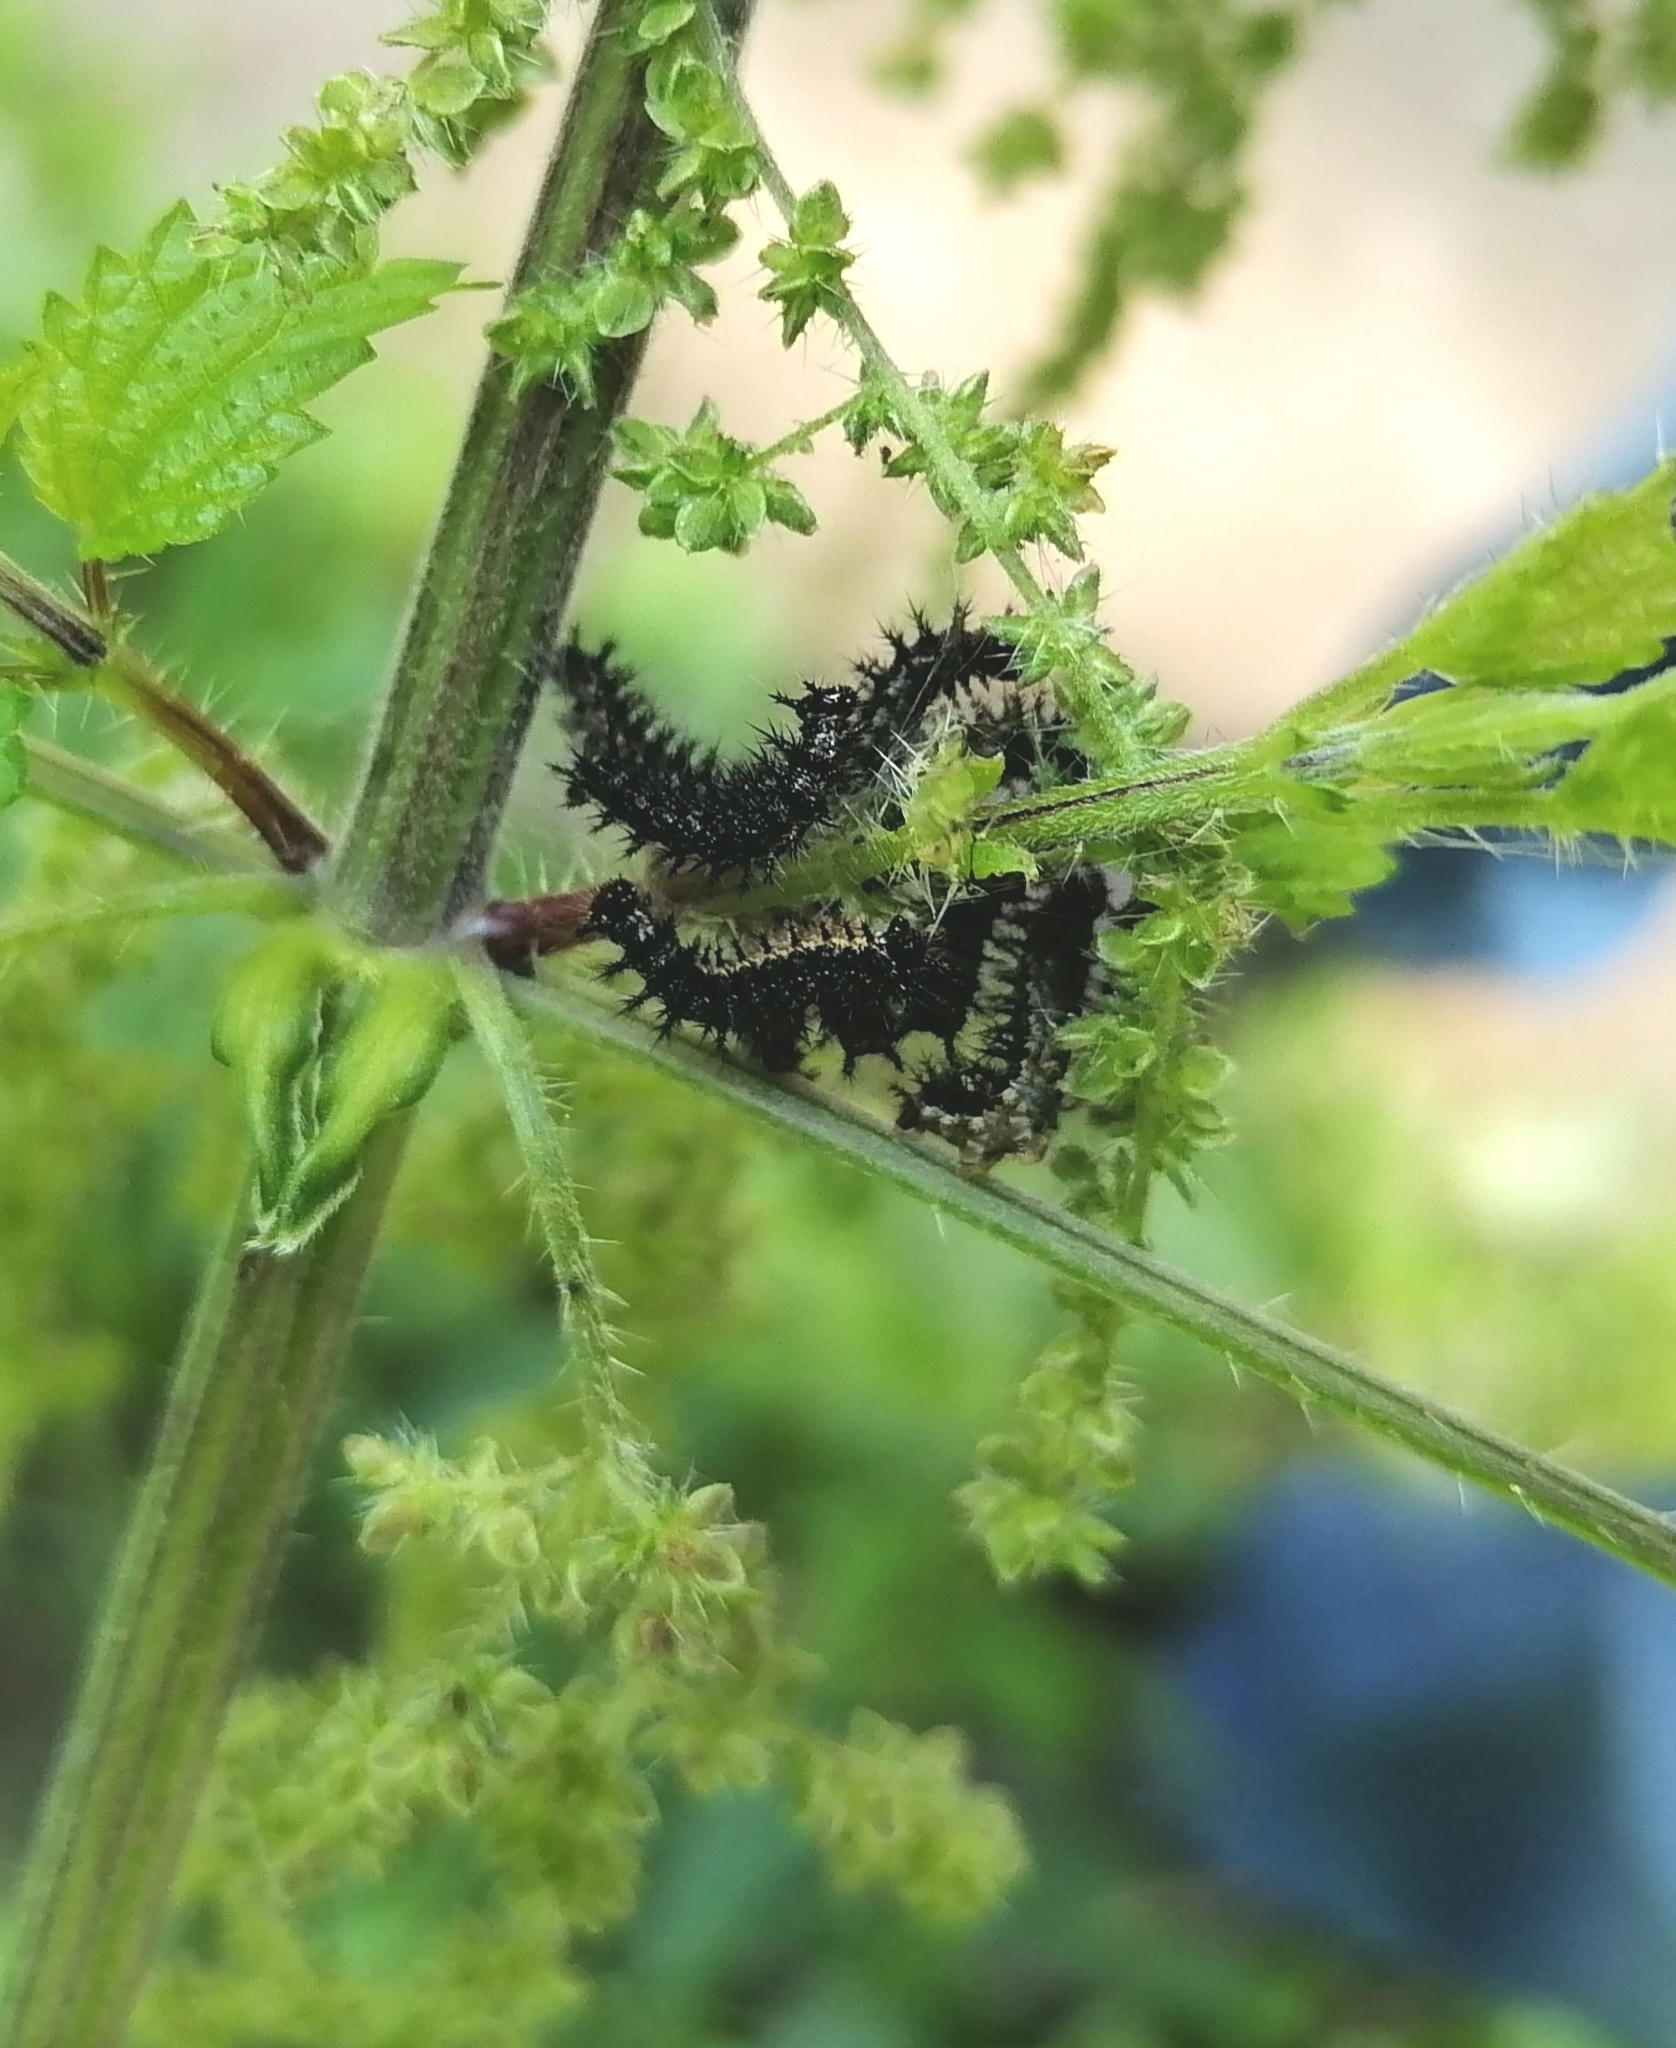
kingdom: Animalia
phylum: Arthropoda
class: Insecta
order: Lepidoptera
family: Nymphalidae
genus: Araschnia
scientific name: Araschnia levana
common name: Map butterfly
